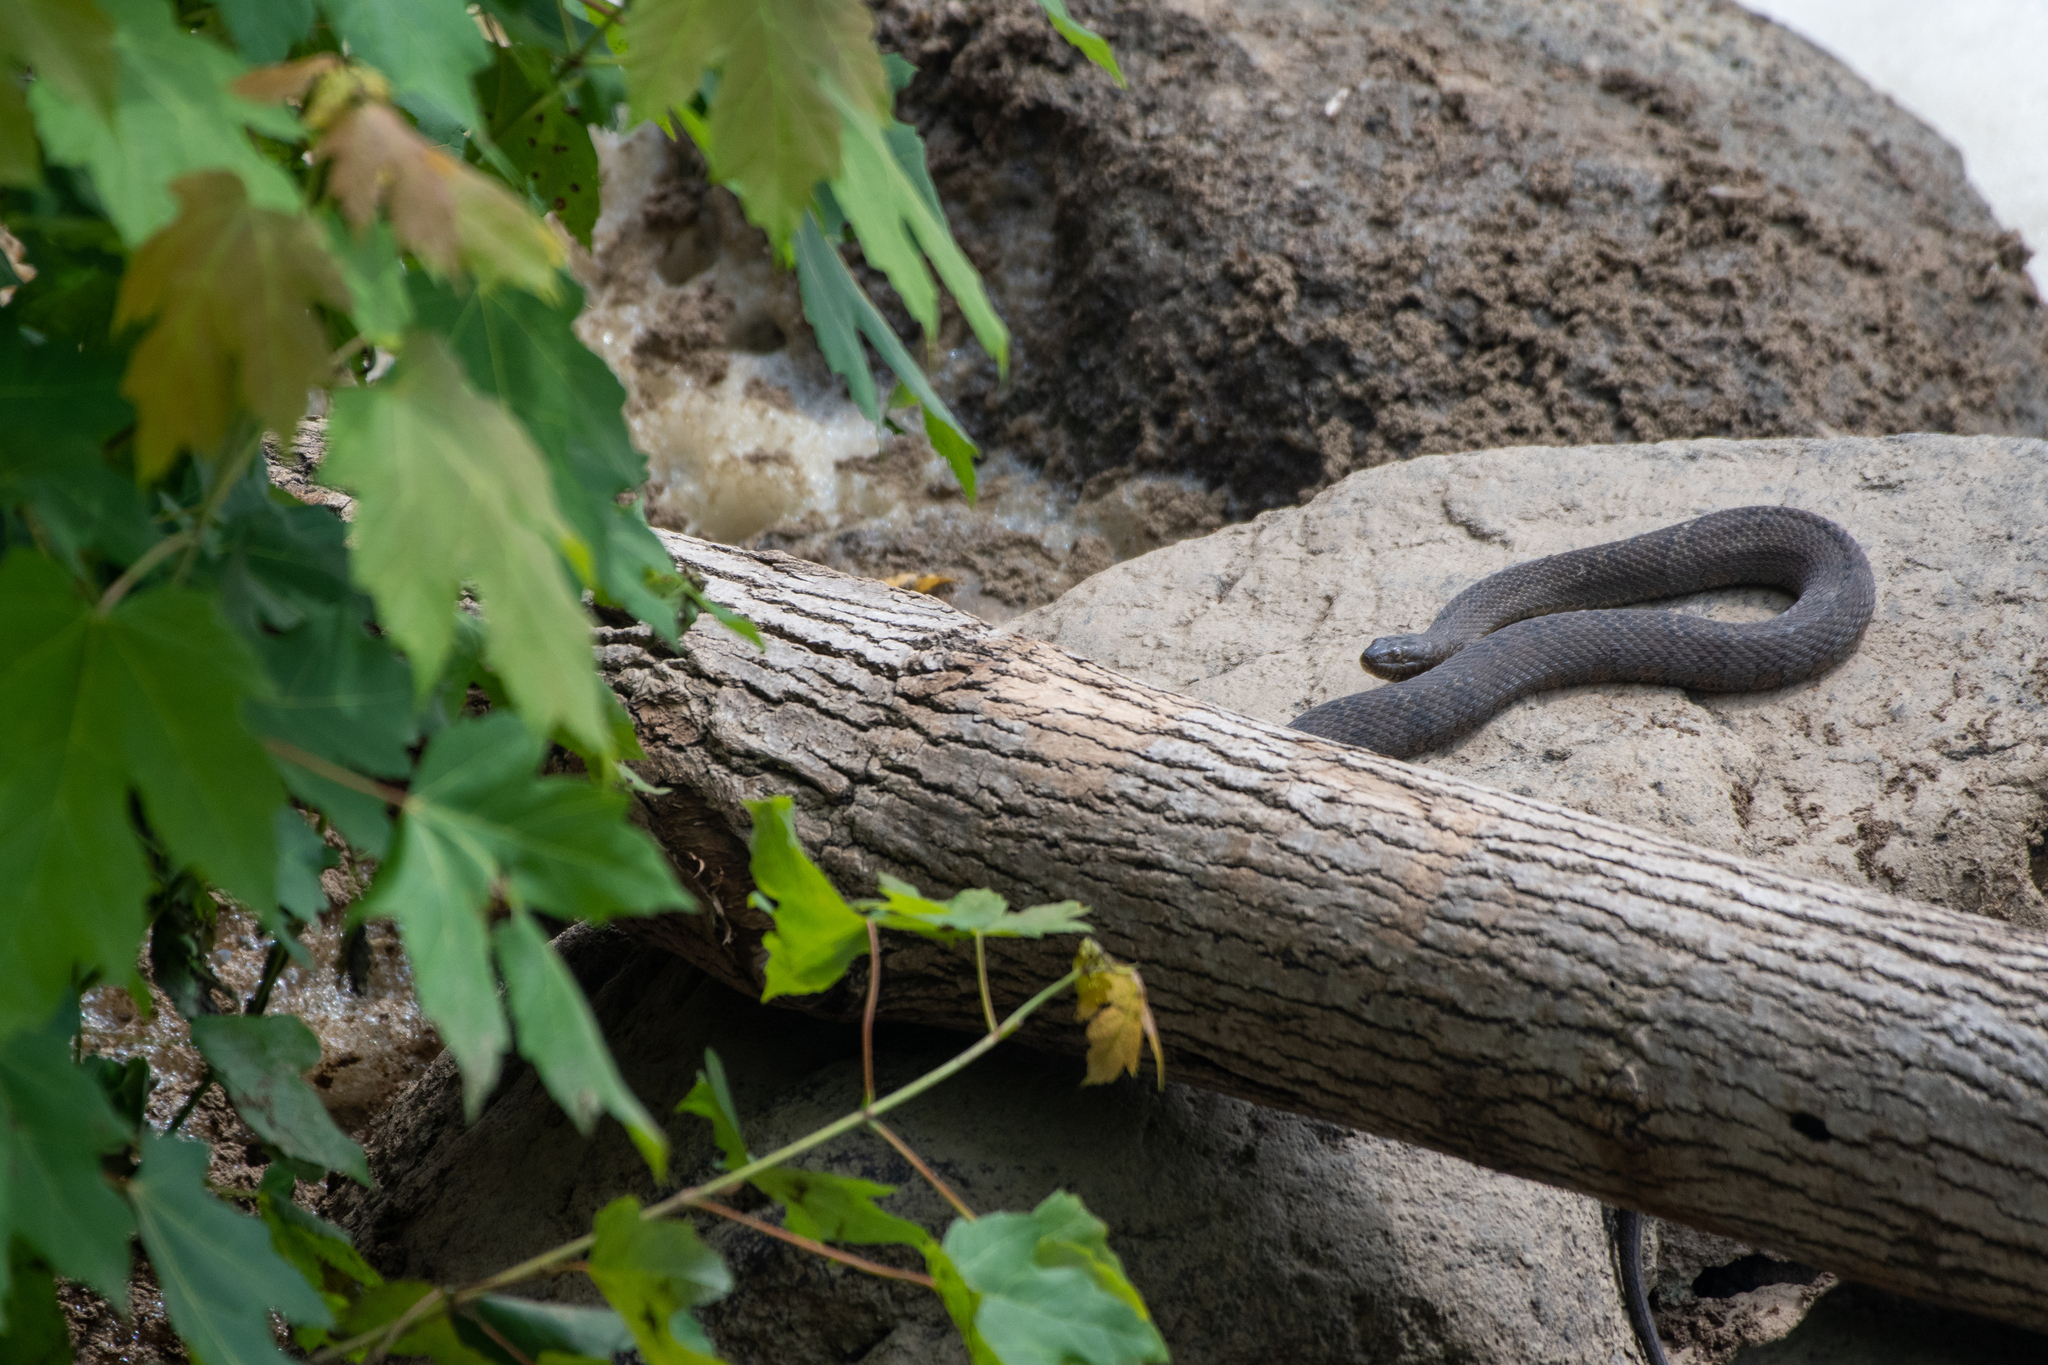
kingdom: Animalia
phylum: Chordata
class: Squamata
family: Colubridae
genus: Nerodia
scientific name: Nerodia sipedon
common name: Northern water snake
